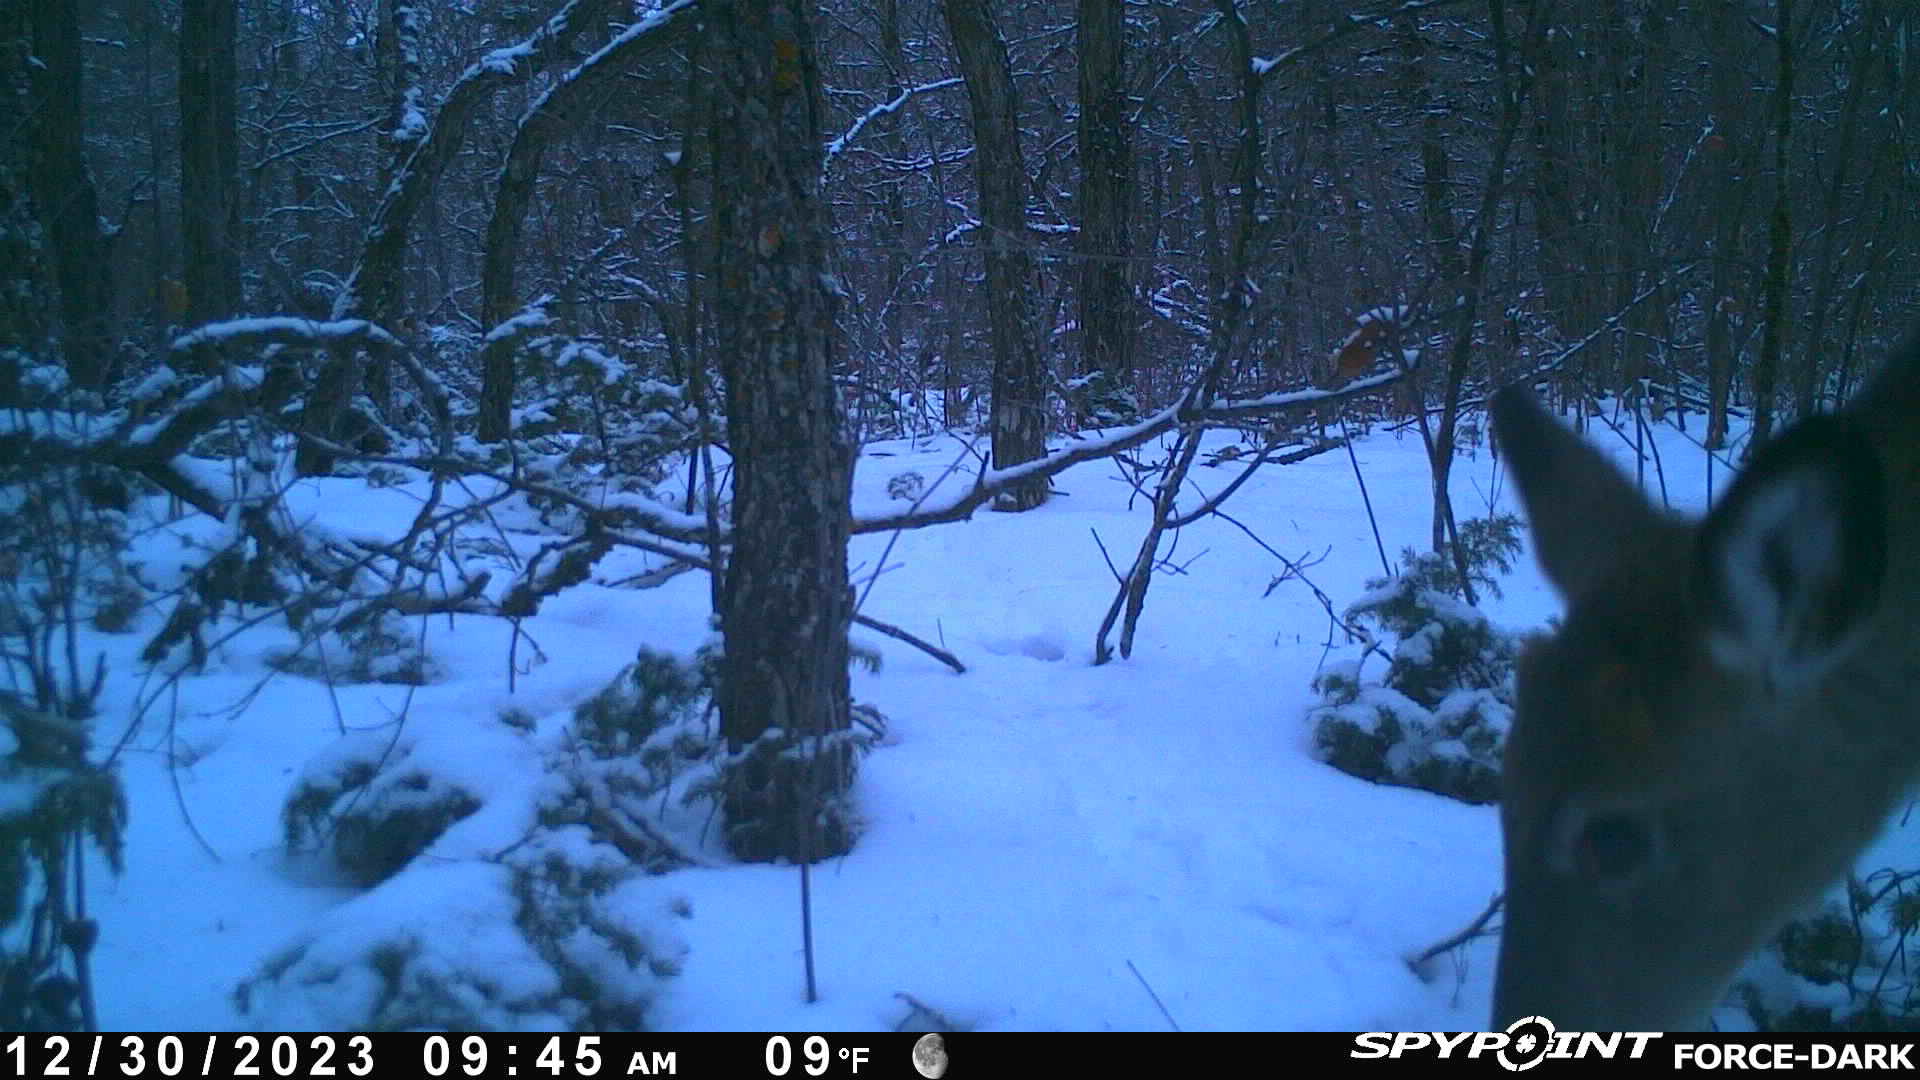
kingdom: Animalia
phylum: Chordata
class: Mammalia
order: Artiodactyla
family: Cervidae
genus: Odocoileus
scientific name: Odocoileus virginianus
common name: White-tailed deer
